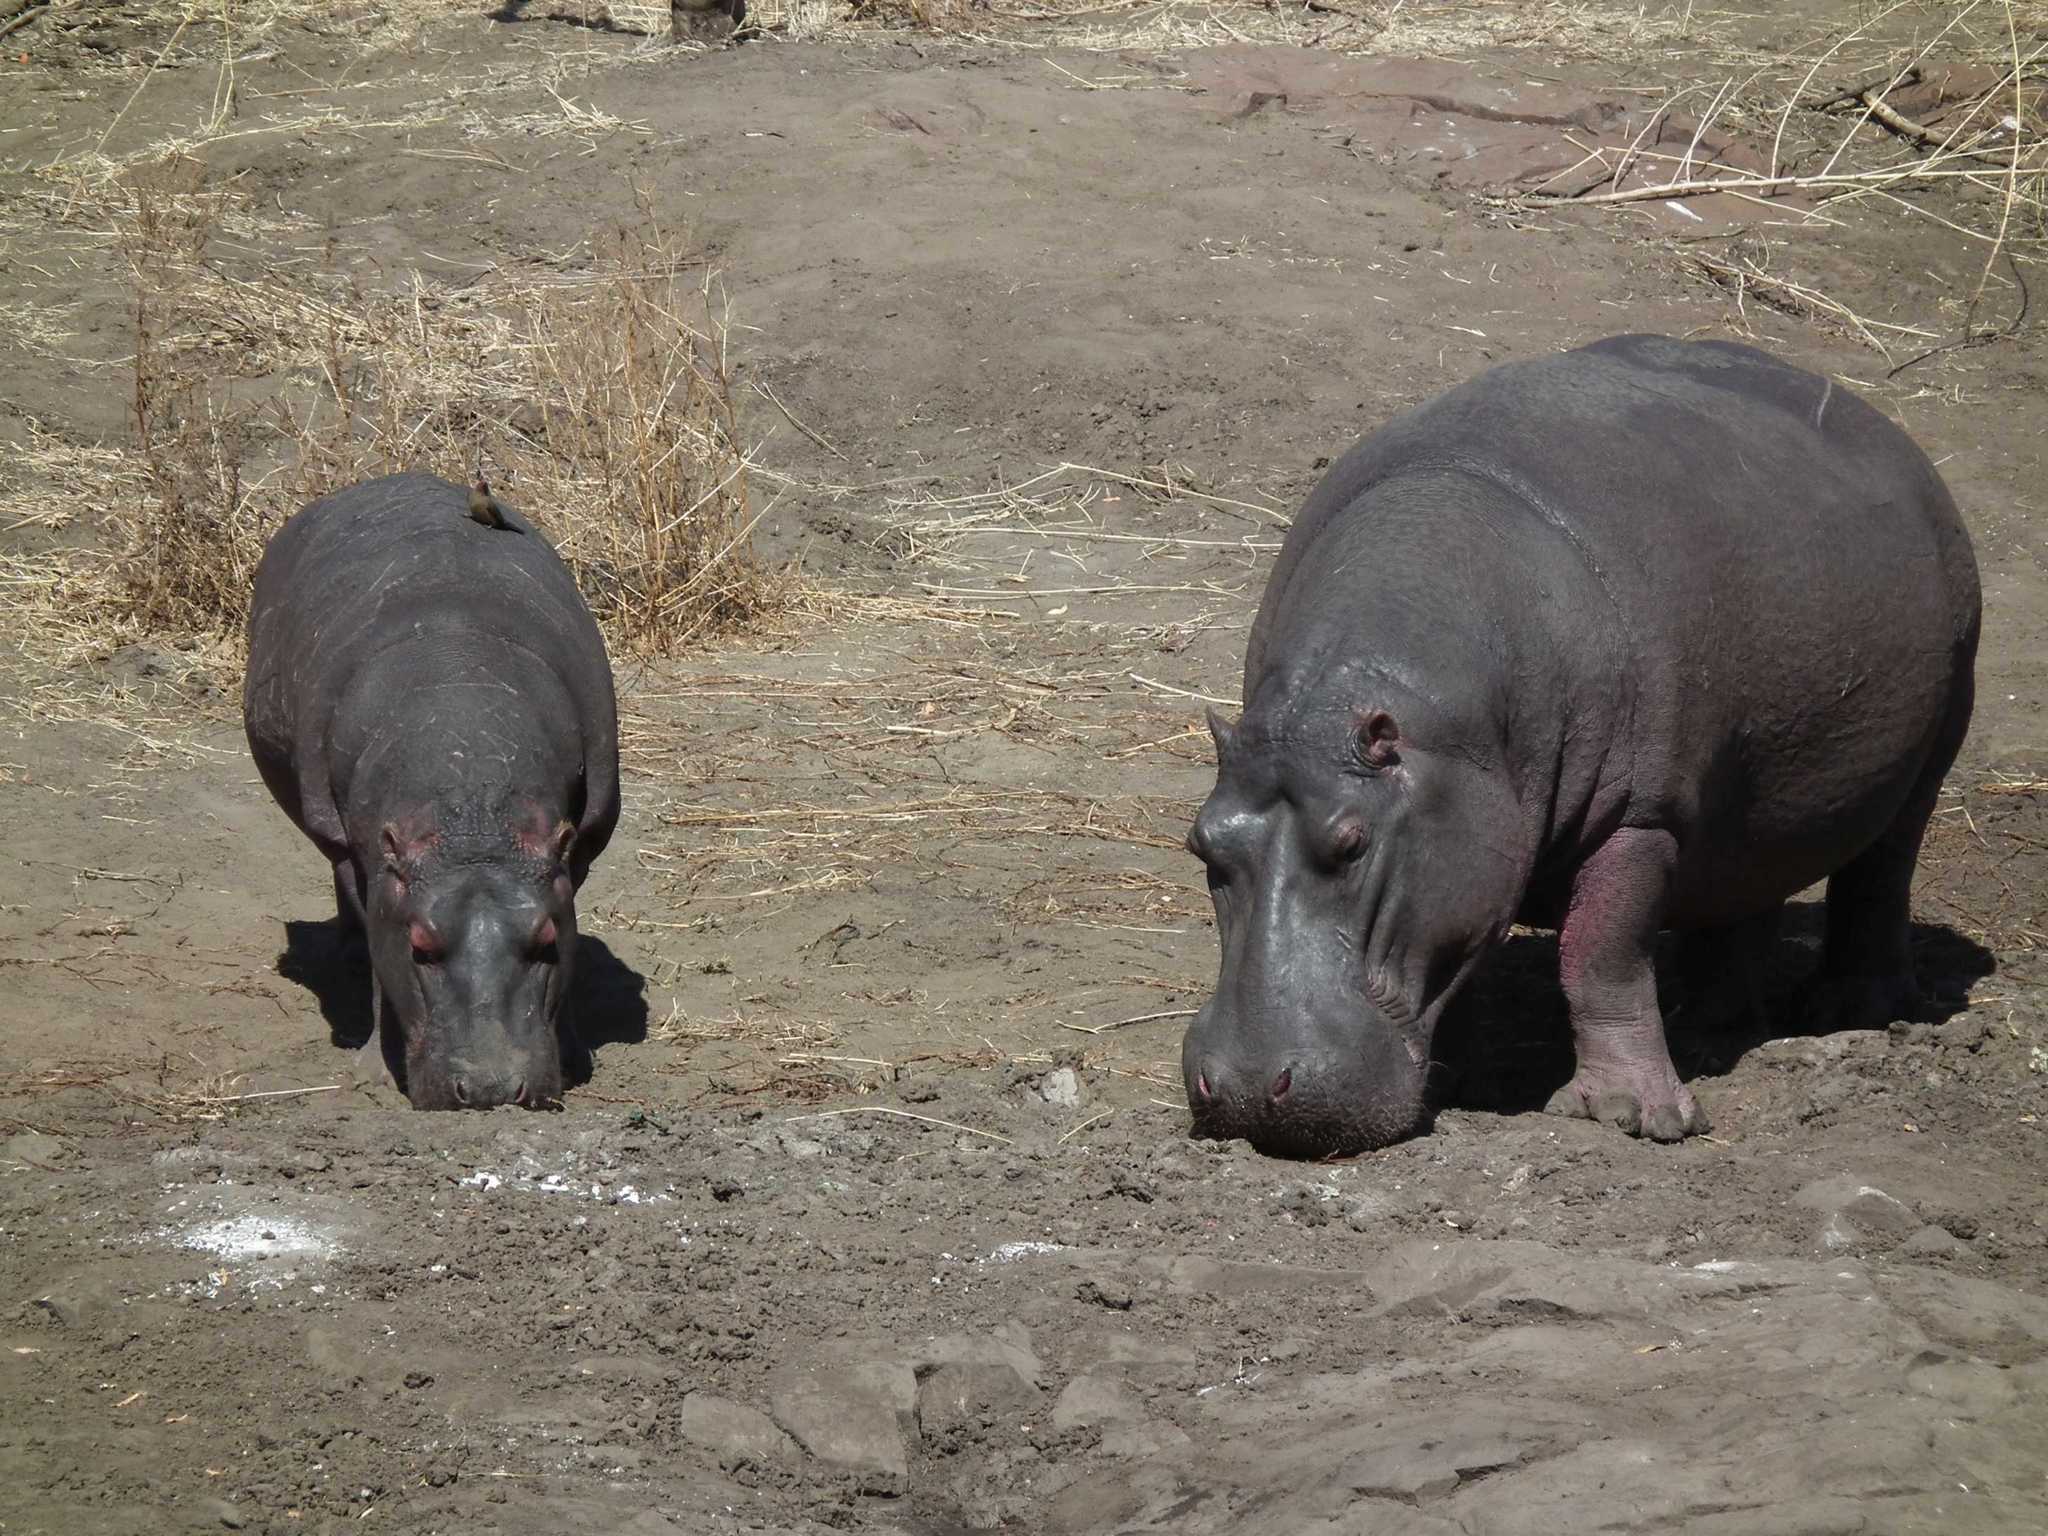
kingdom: Animalia
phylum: Chordata
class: Mammalia
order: Artiodactyla
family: Hippopotamidae
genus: Hippopotamus
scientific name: Hippopotamus amphibius
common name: Common hippopotamus
